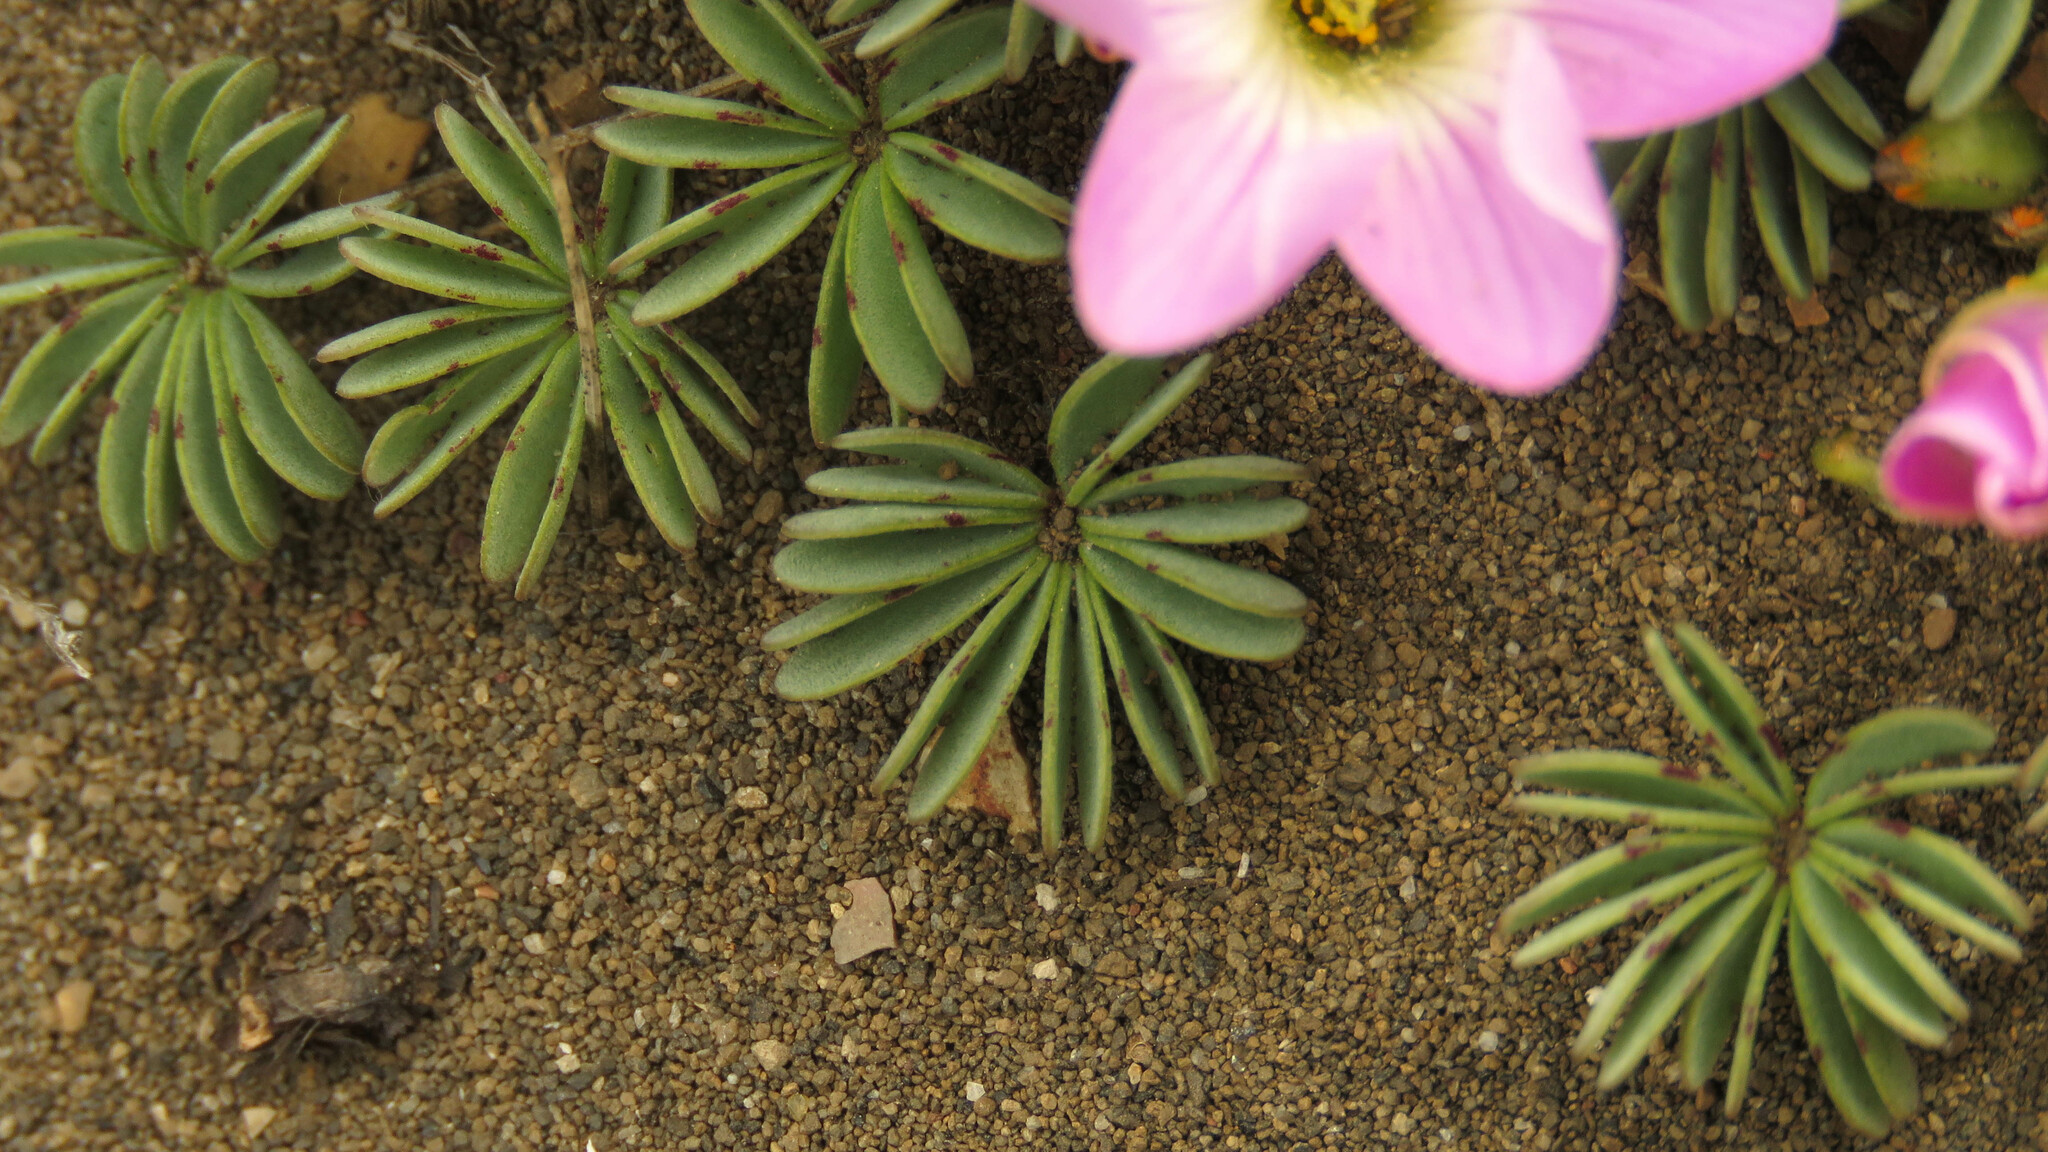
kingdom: Plantae
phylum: Tracheophyta
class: Magnoliopsida
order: Oxalidales
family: Oxalidaceae
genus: Oxalis
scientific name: Oxalis adenophylla
